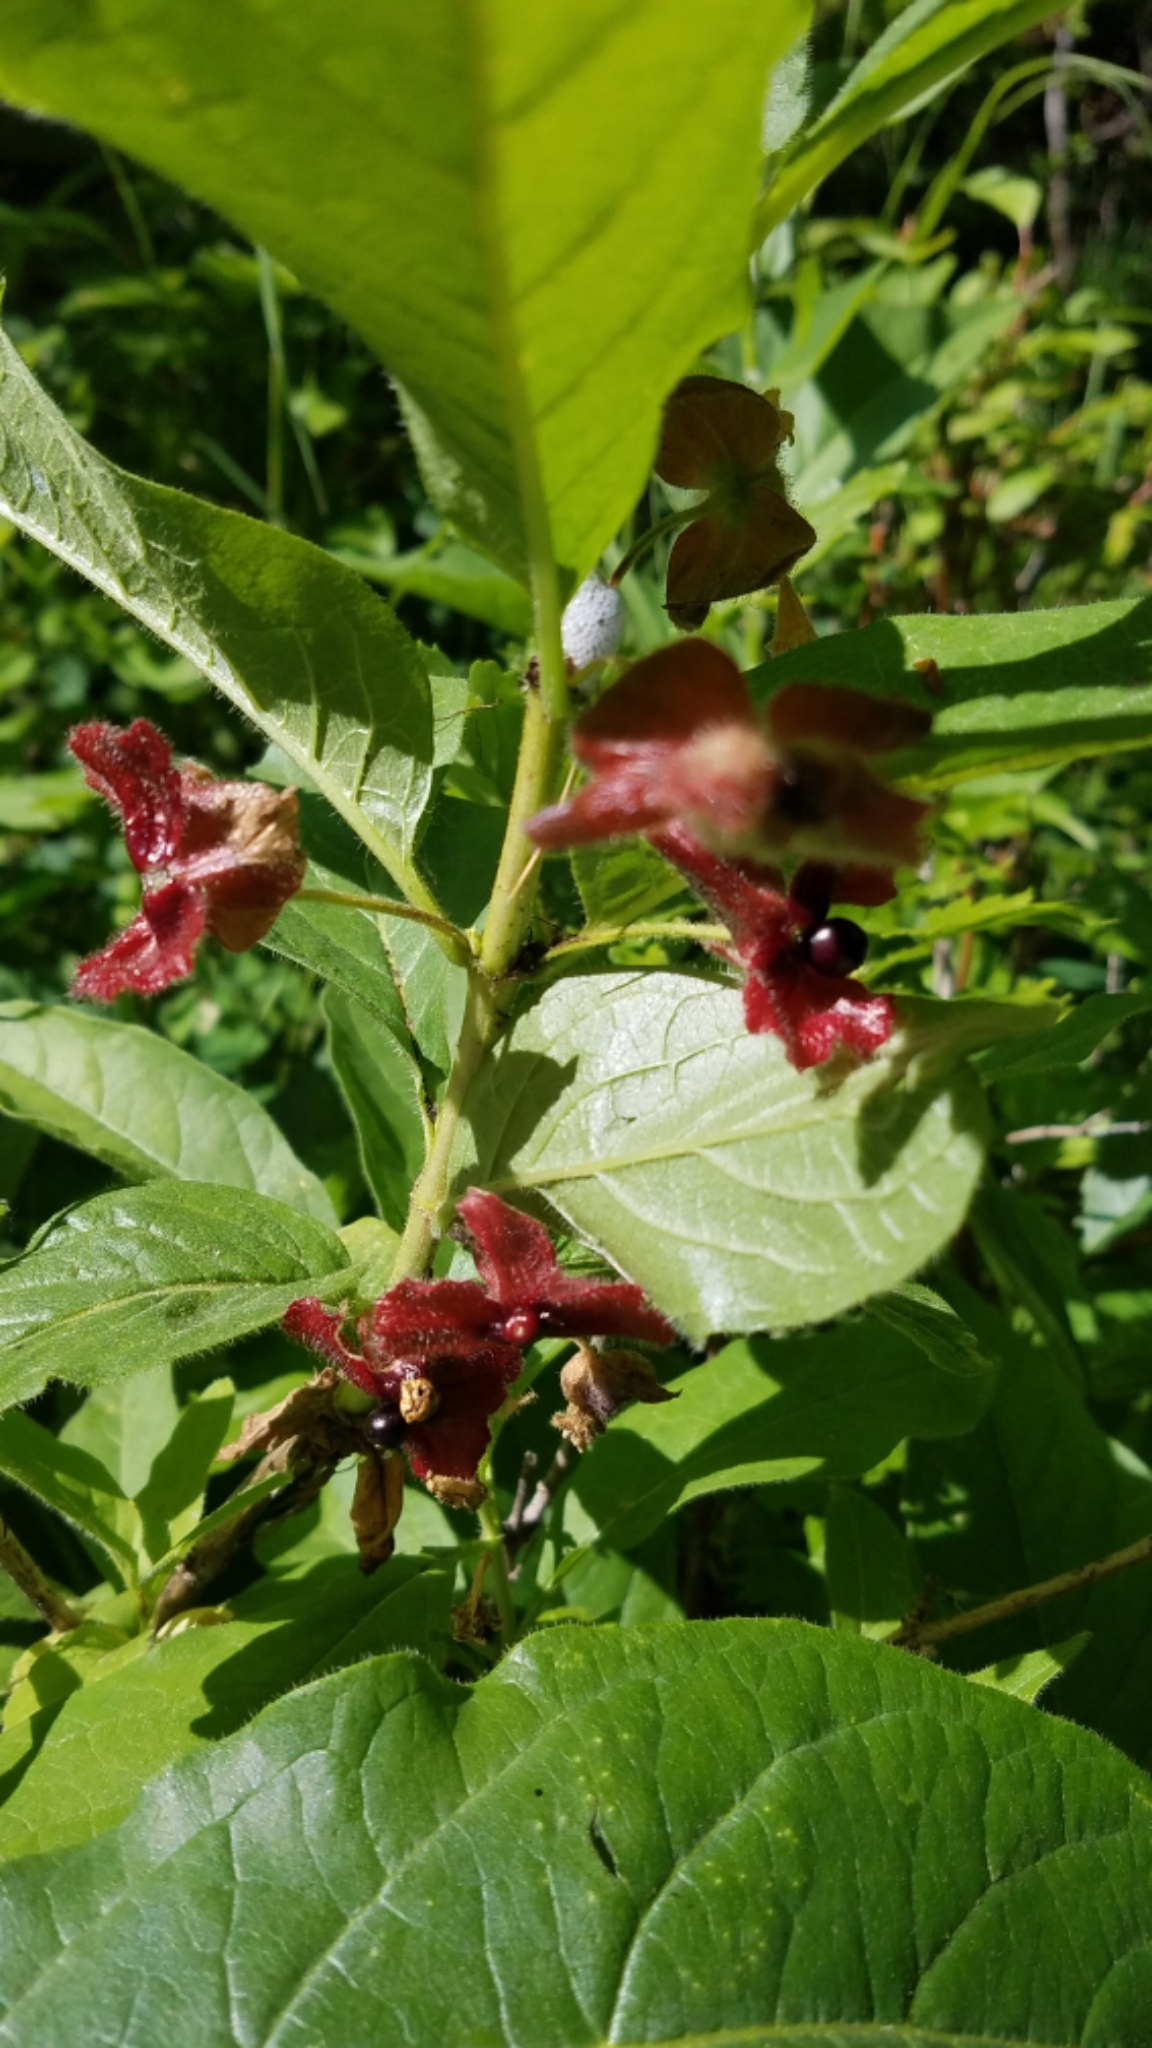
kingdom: Plantae
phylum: Tracheophyta
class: Magnoliopsida
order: Dipsacales
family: Caprifoliaceae
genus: Lonicera
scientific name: Lonicera involucrata
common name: Californian honeysuckle
